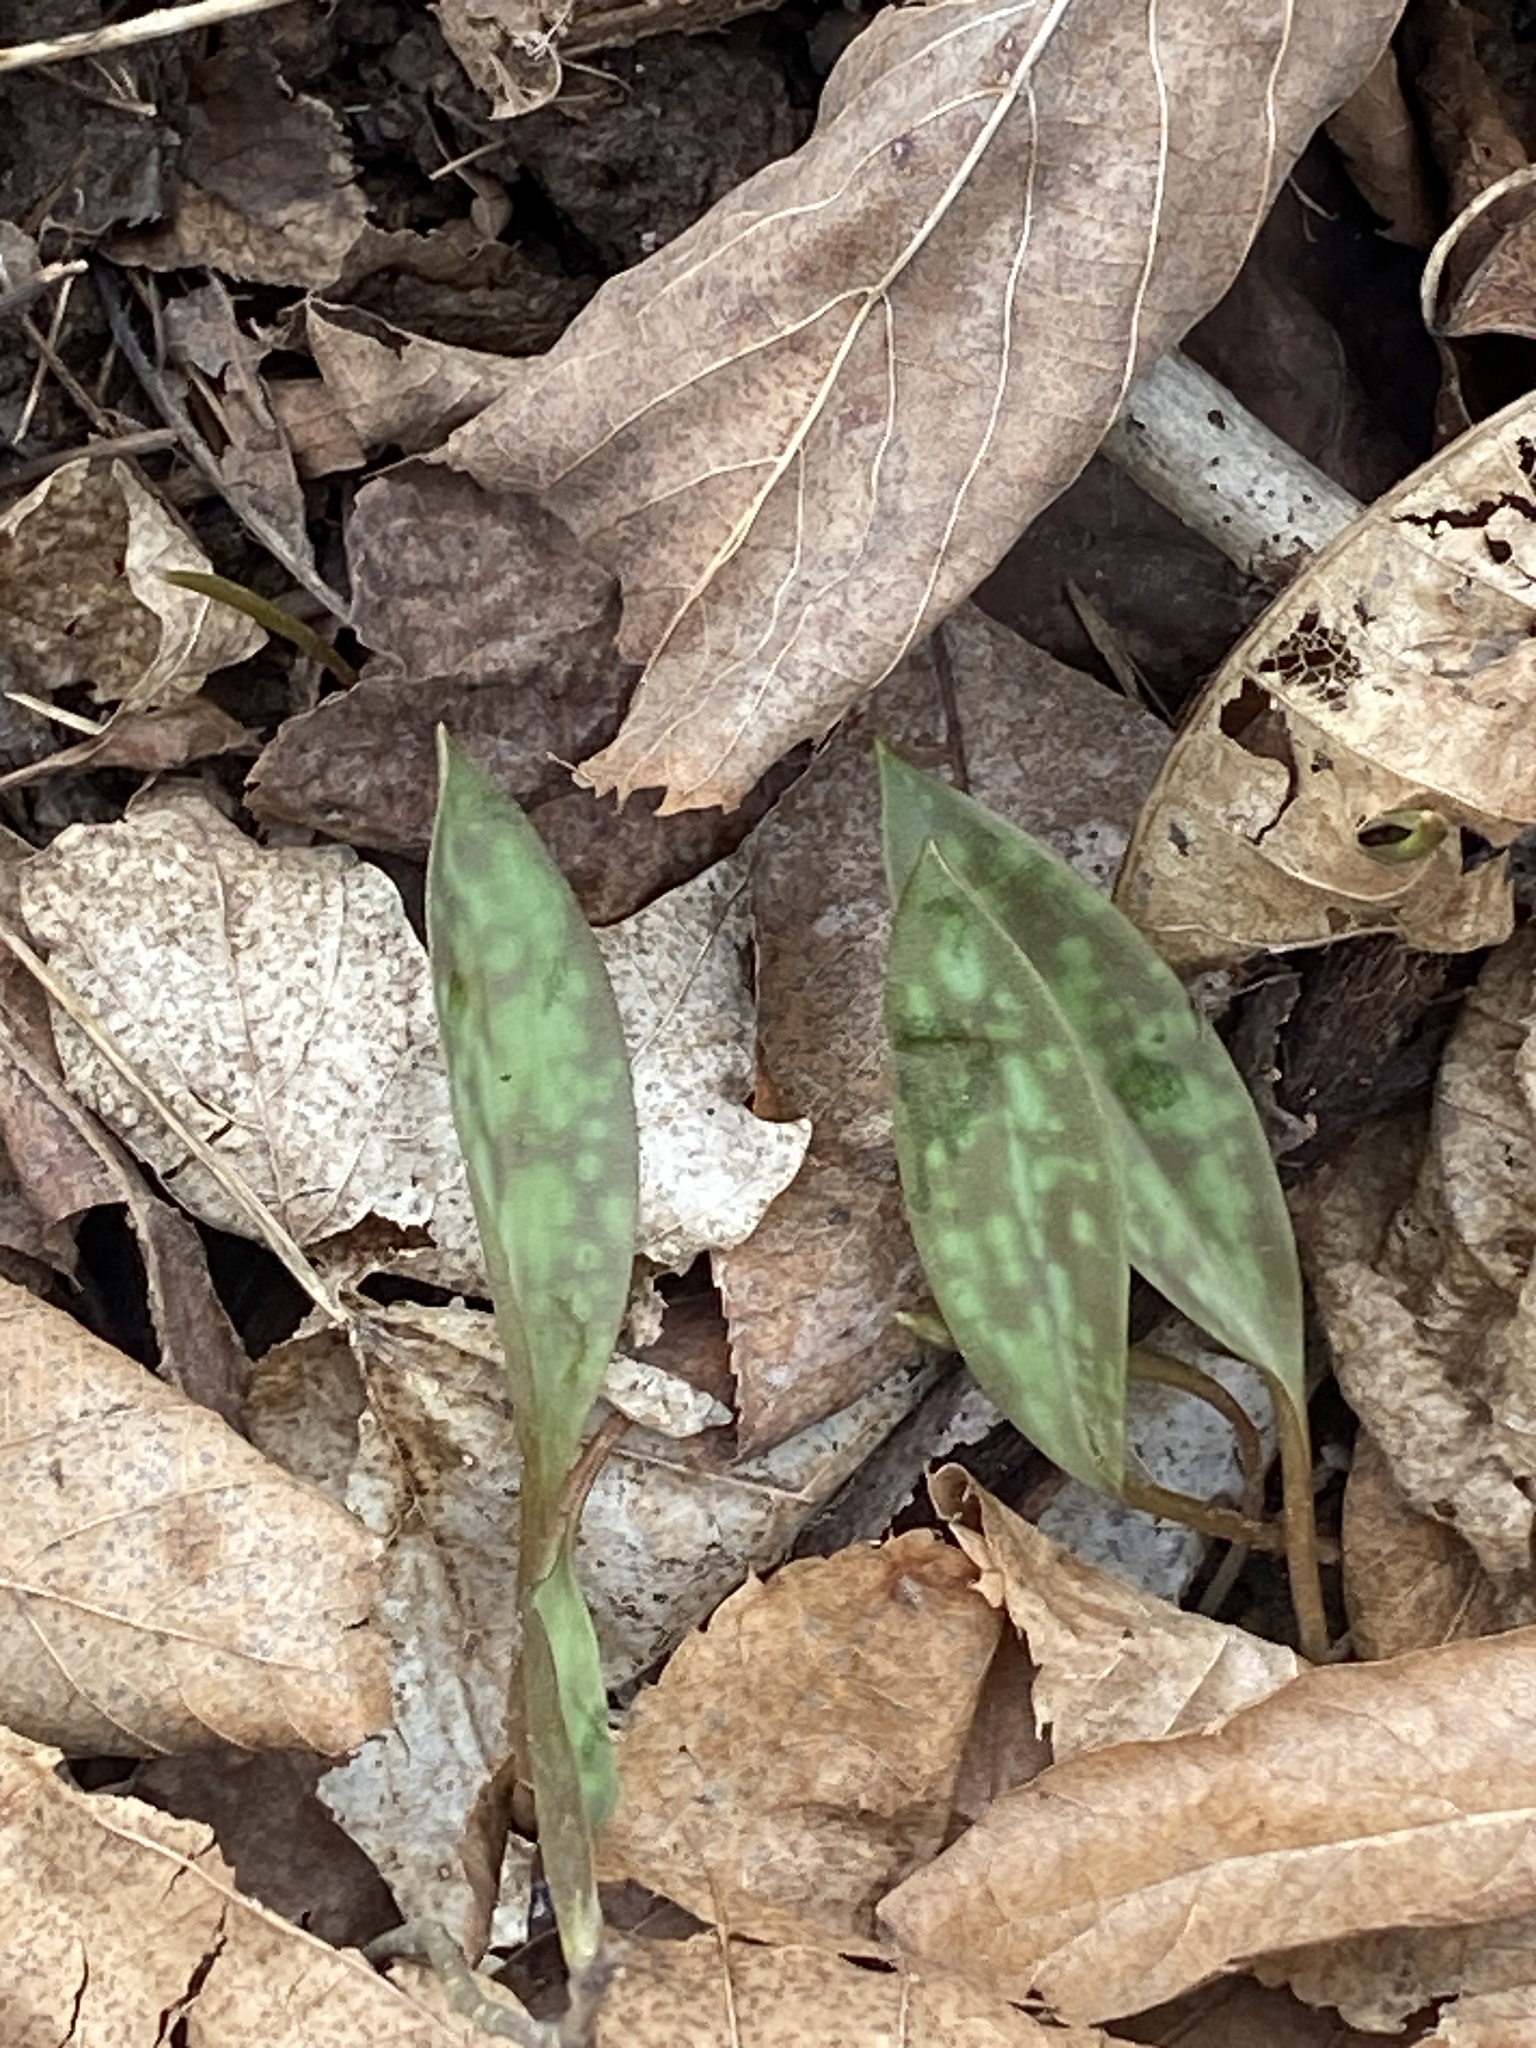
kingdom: Plantae
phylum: Tracheophyta
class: Liliopsida
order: Liliales
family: Liliaceae
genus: Erythronium
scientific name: Erythronium americanum
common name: Yellow adder's-tongue
